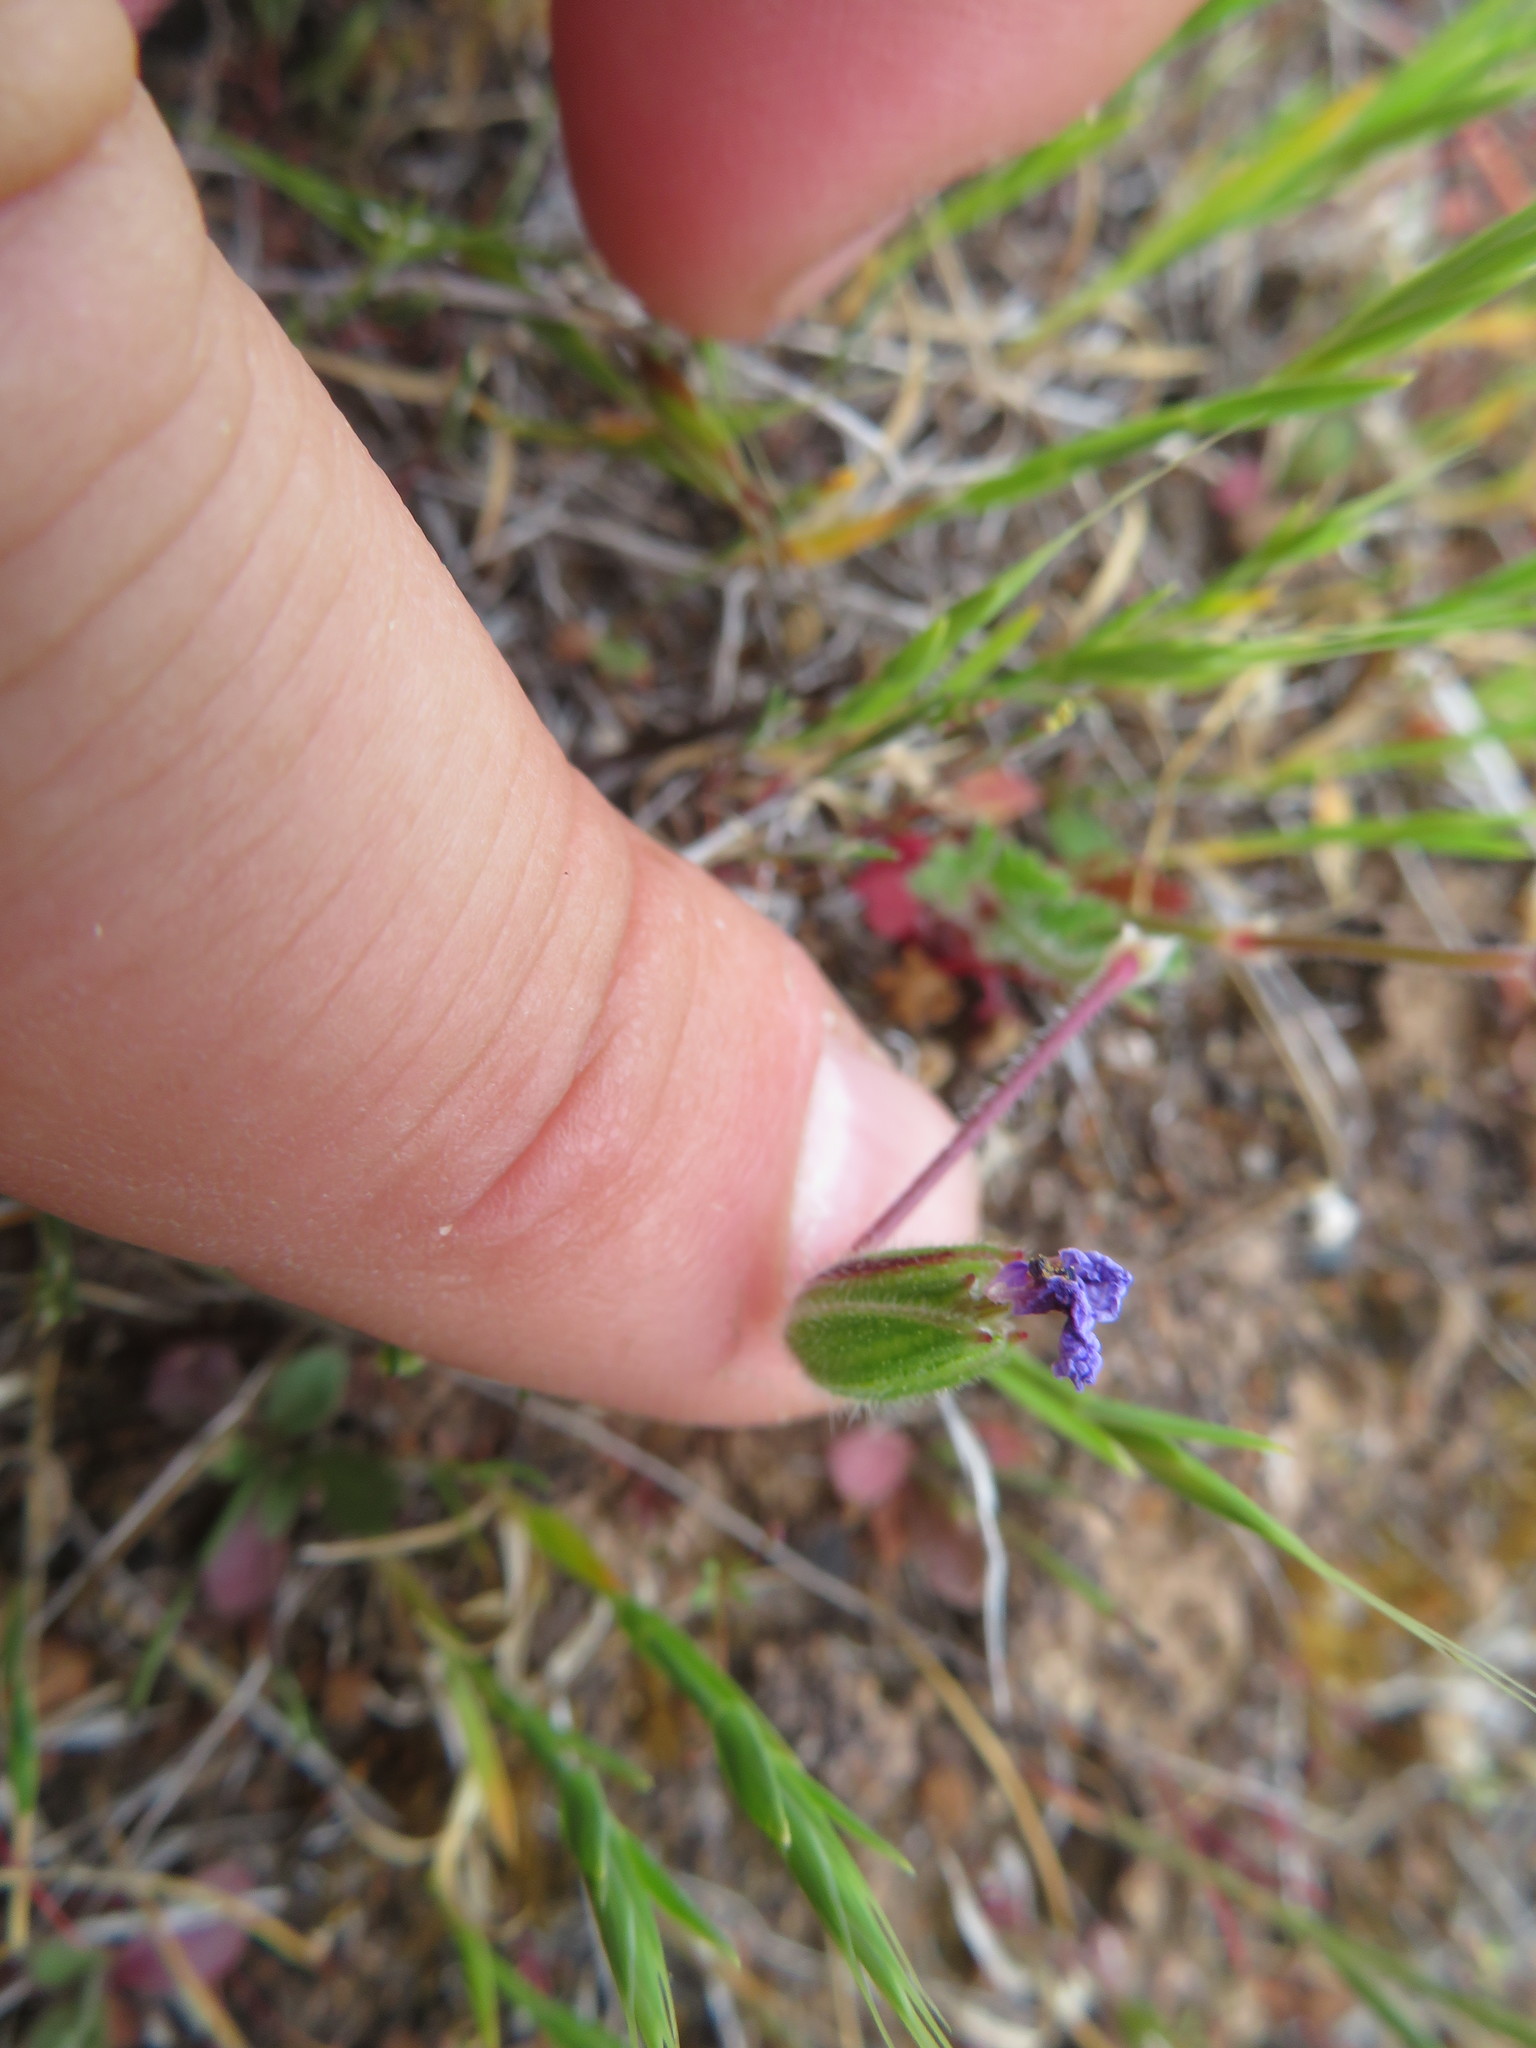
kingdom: Plantae
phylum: Tracheophyta
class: Magnoliopsida
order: Geraniales
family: Geraniaceae
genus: Erodium
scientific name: Erodium botrys
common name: Mediterranean stork's-bill
